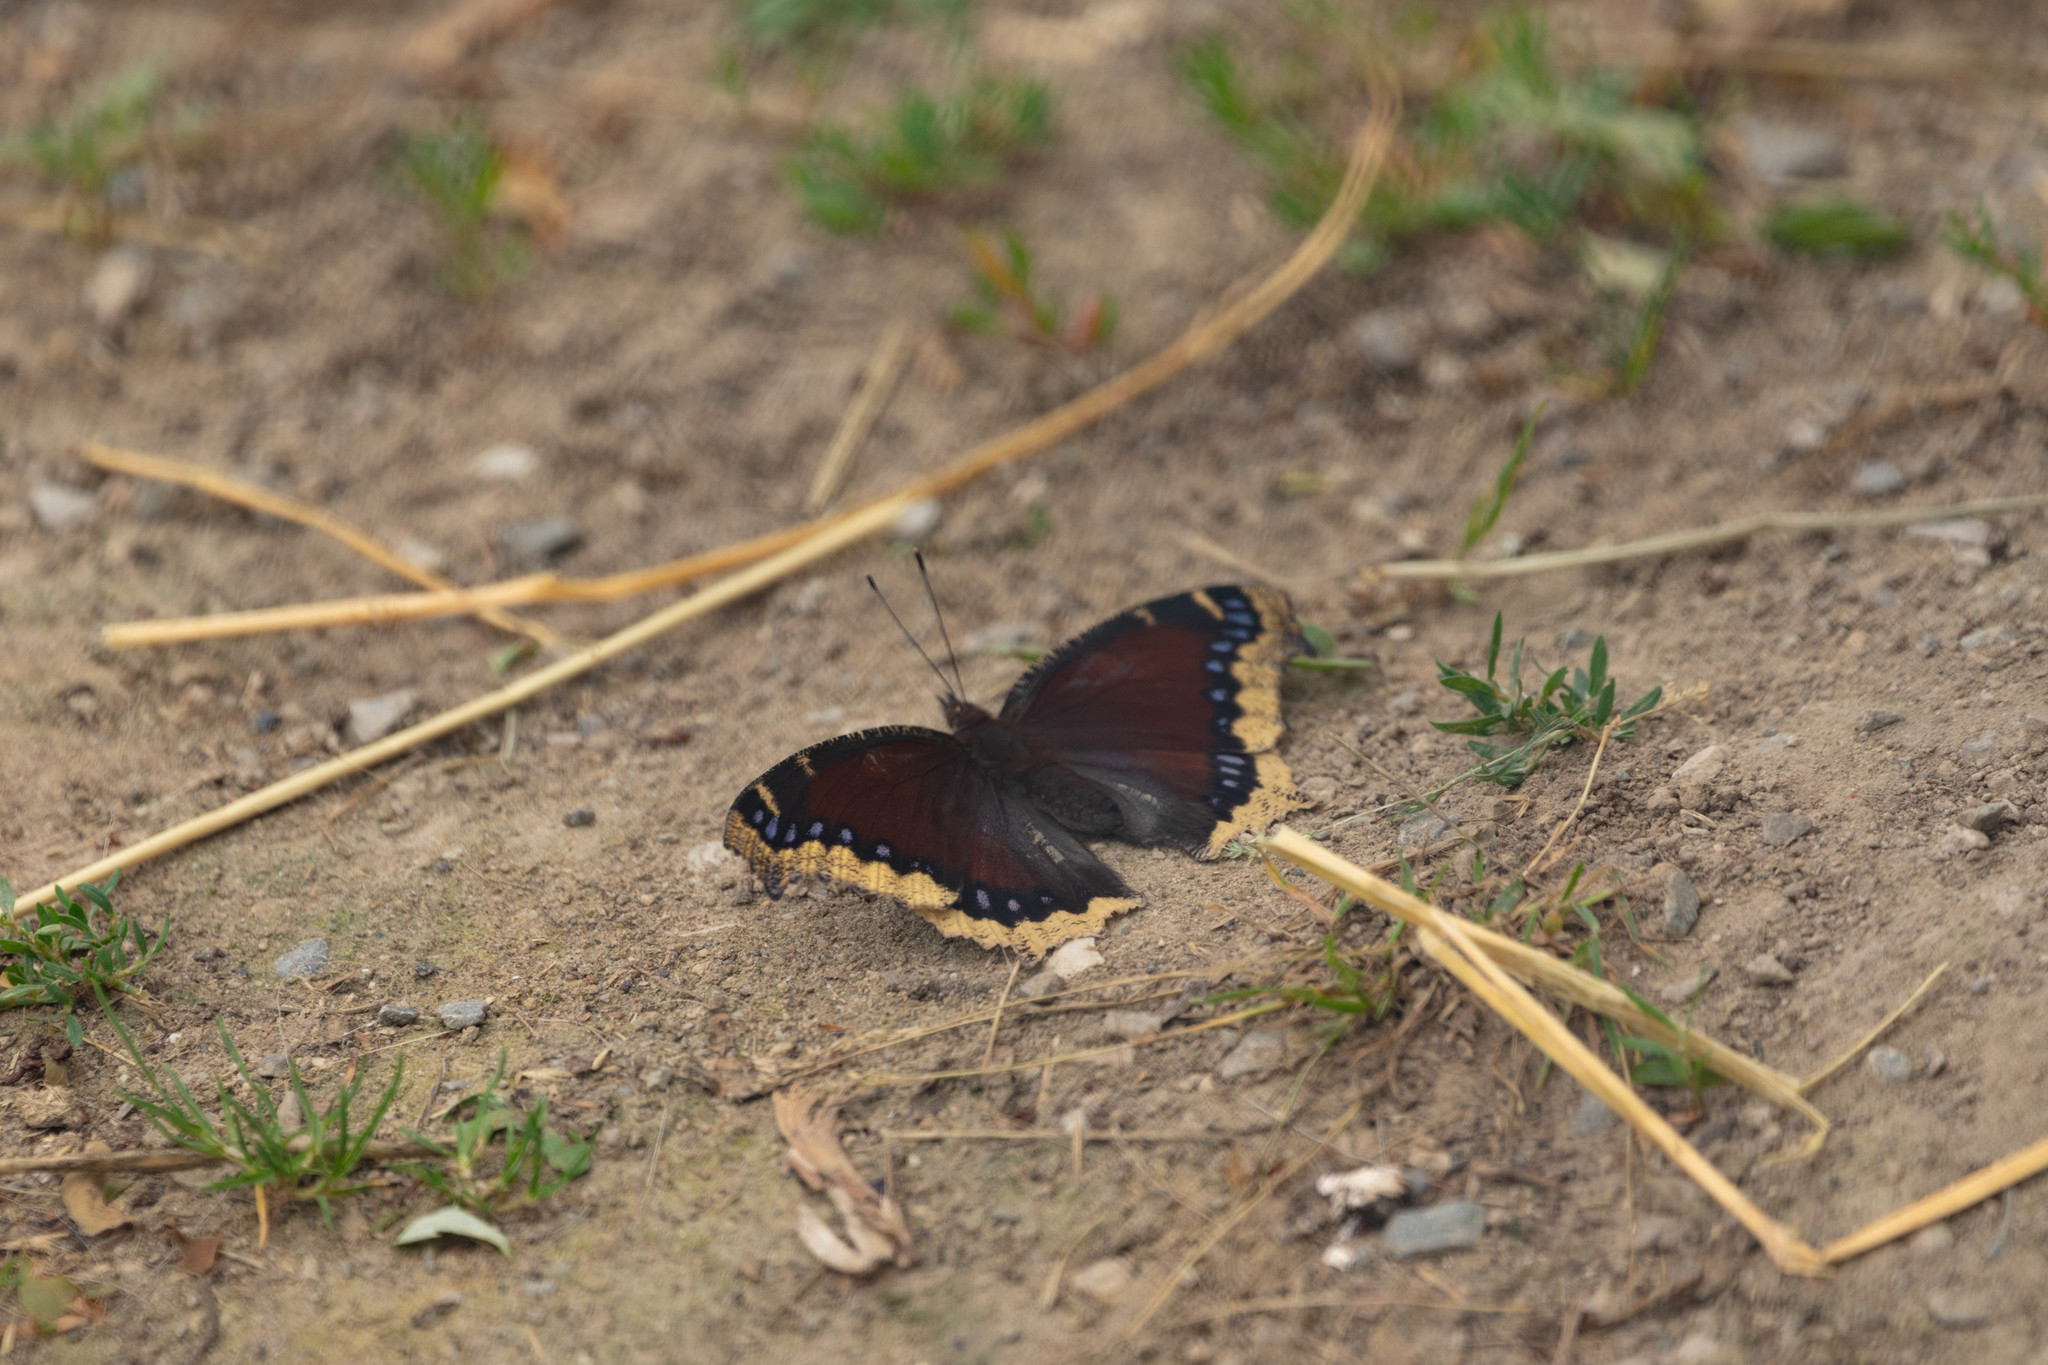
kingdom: Animalia
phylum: Arthropoda
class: Insecta
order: Lepidoptera
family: Nymphalidae
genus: Nymphalis
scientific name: Nymphalis antiopa
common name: Camberwell beauty
